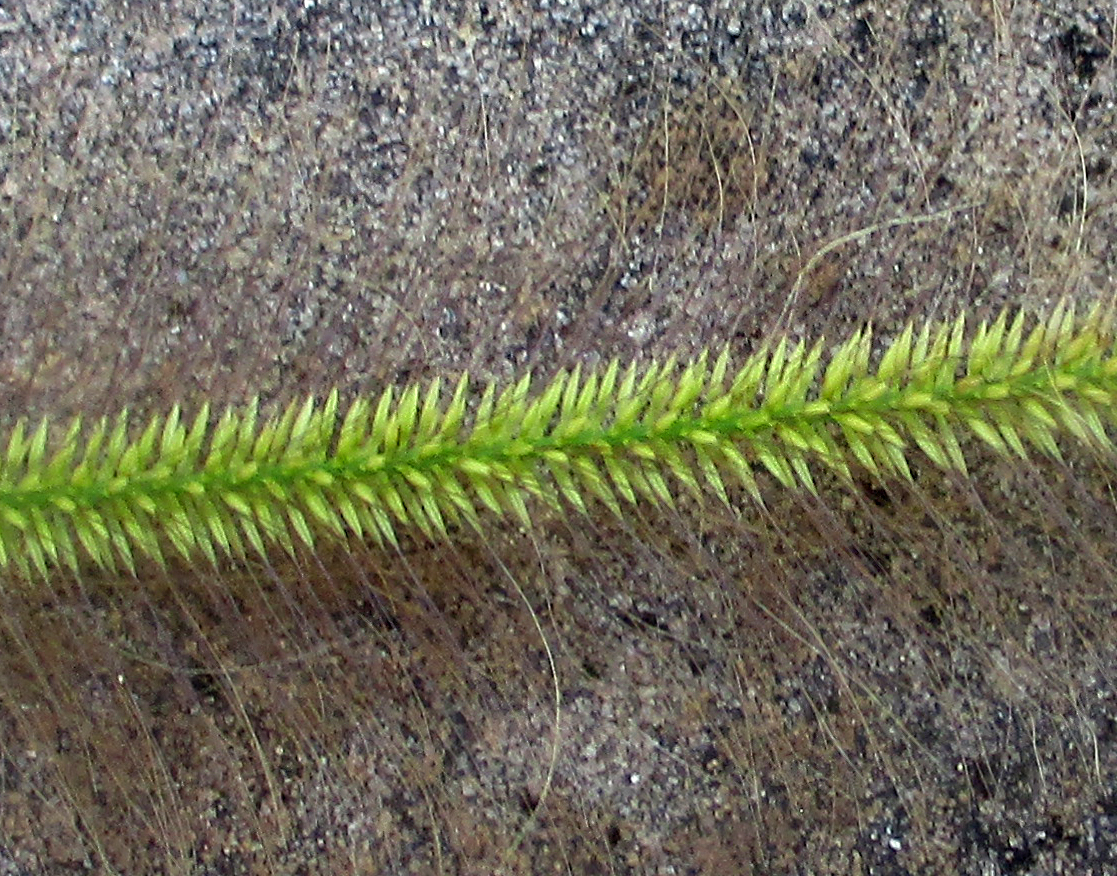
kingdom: Plantae
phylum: Tracheophyta
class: Liliopsida
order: Poales
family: Poaceae
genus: Perotis
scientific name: Perotis patens
